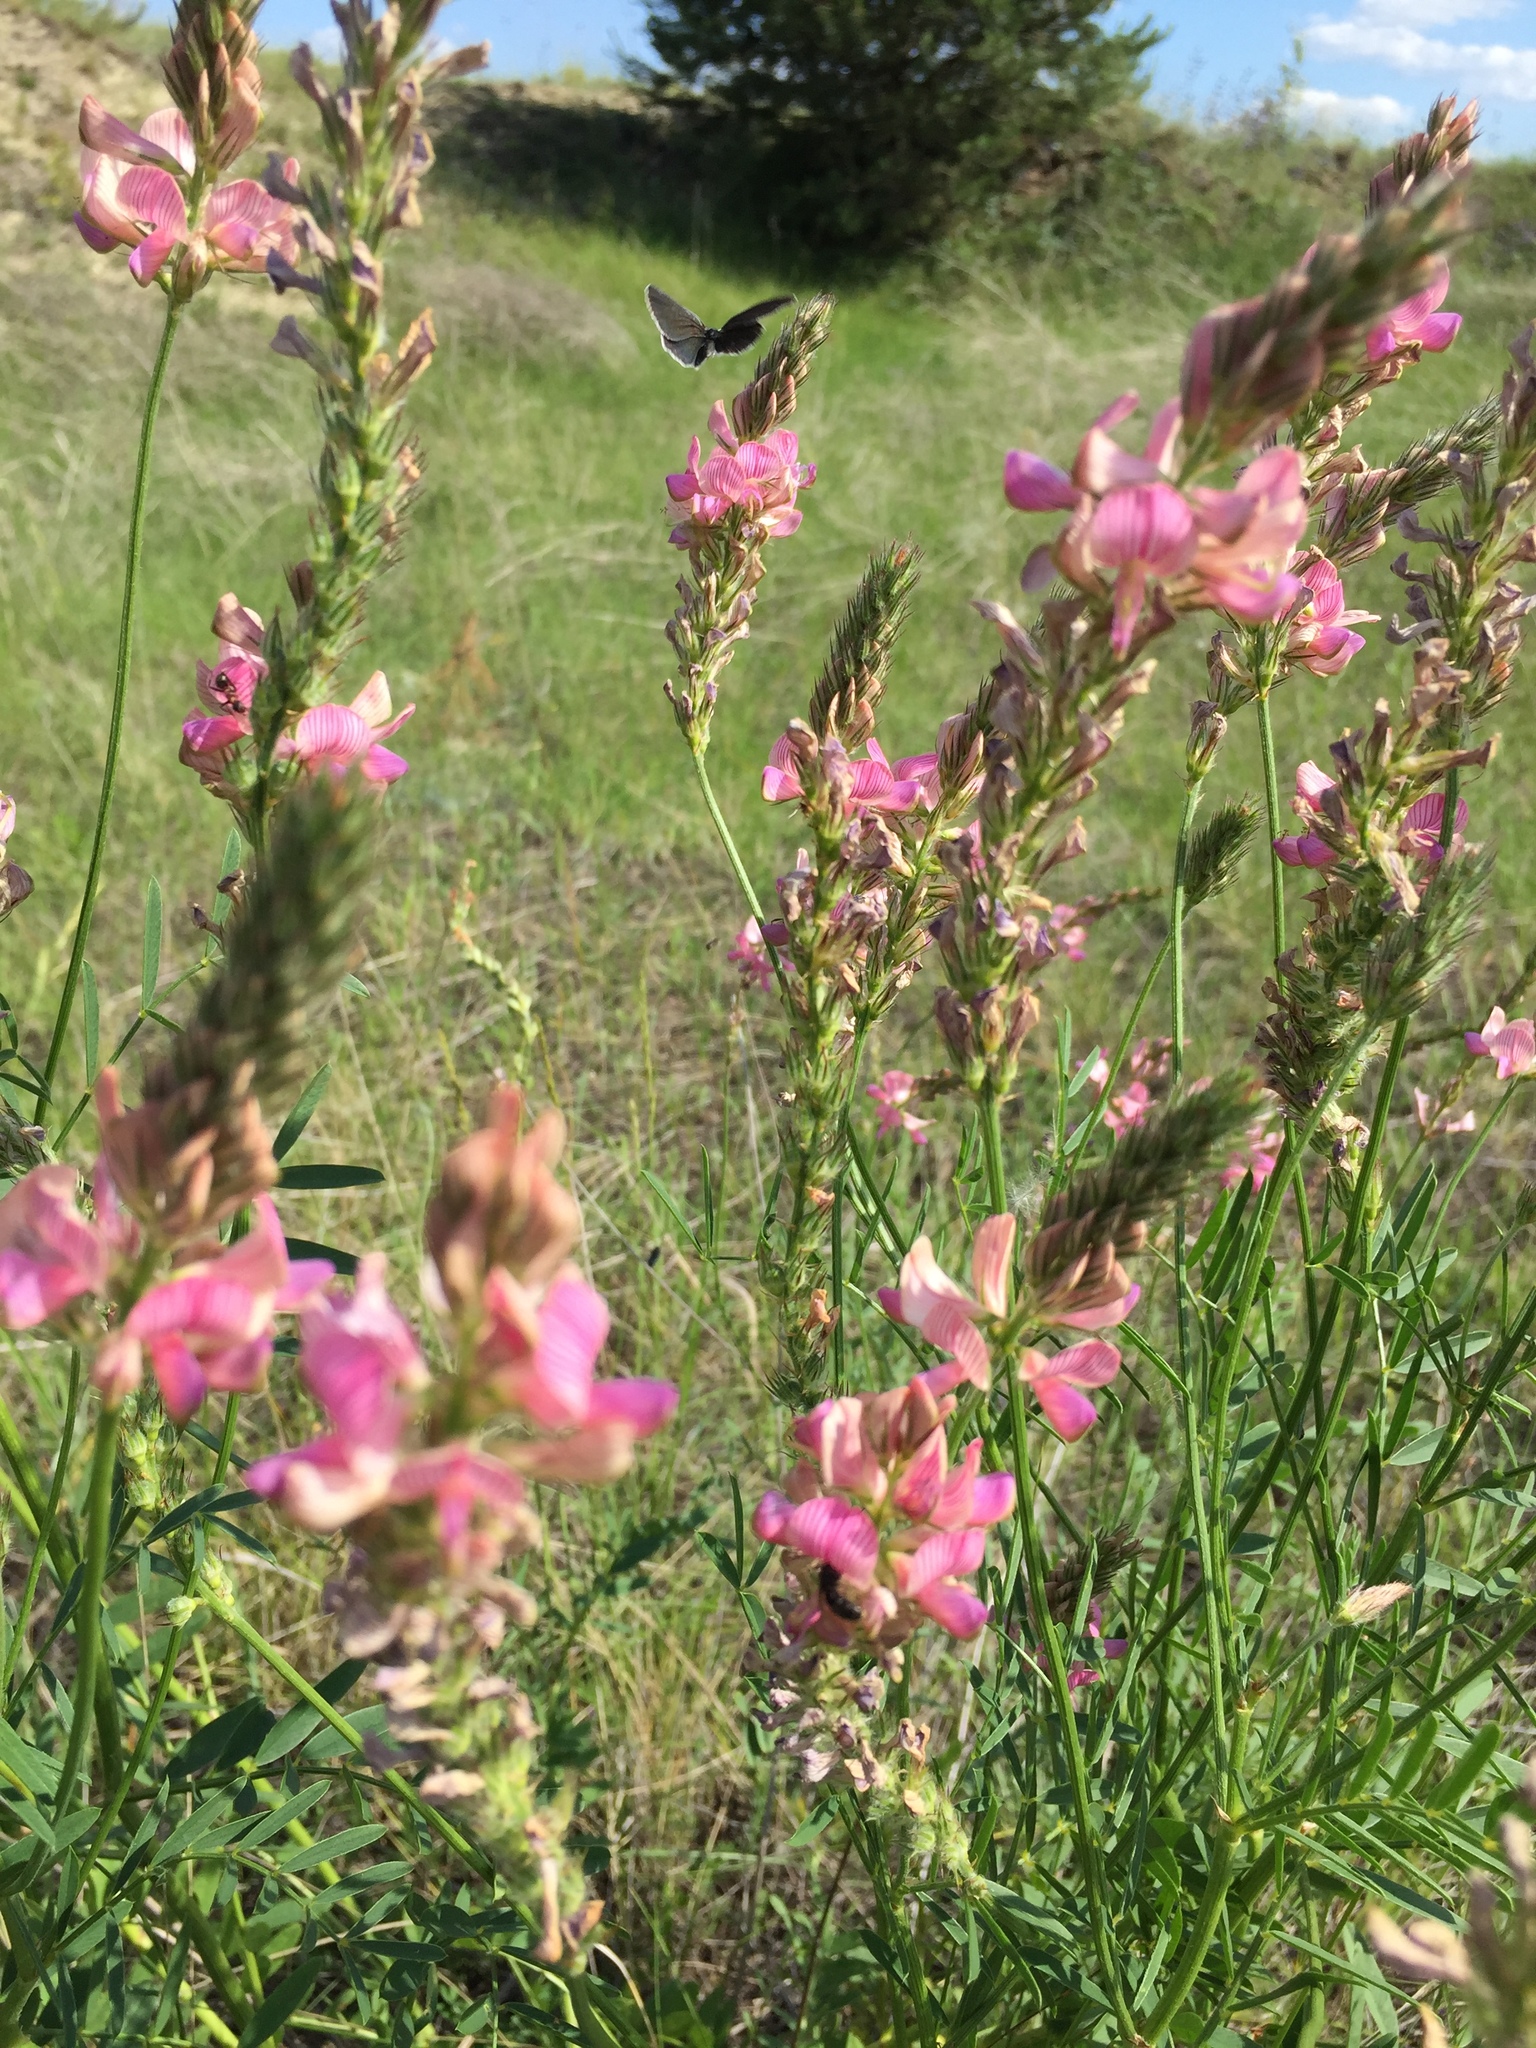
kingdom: Plantae
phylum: Tracheophyta
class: Magnoliopsida
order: Fabales
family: Fabaceae
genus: Onobrychis
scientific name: Onobrychis viciifolia
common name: Sainfoin
